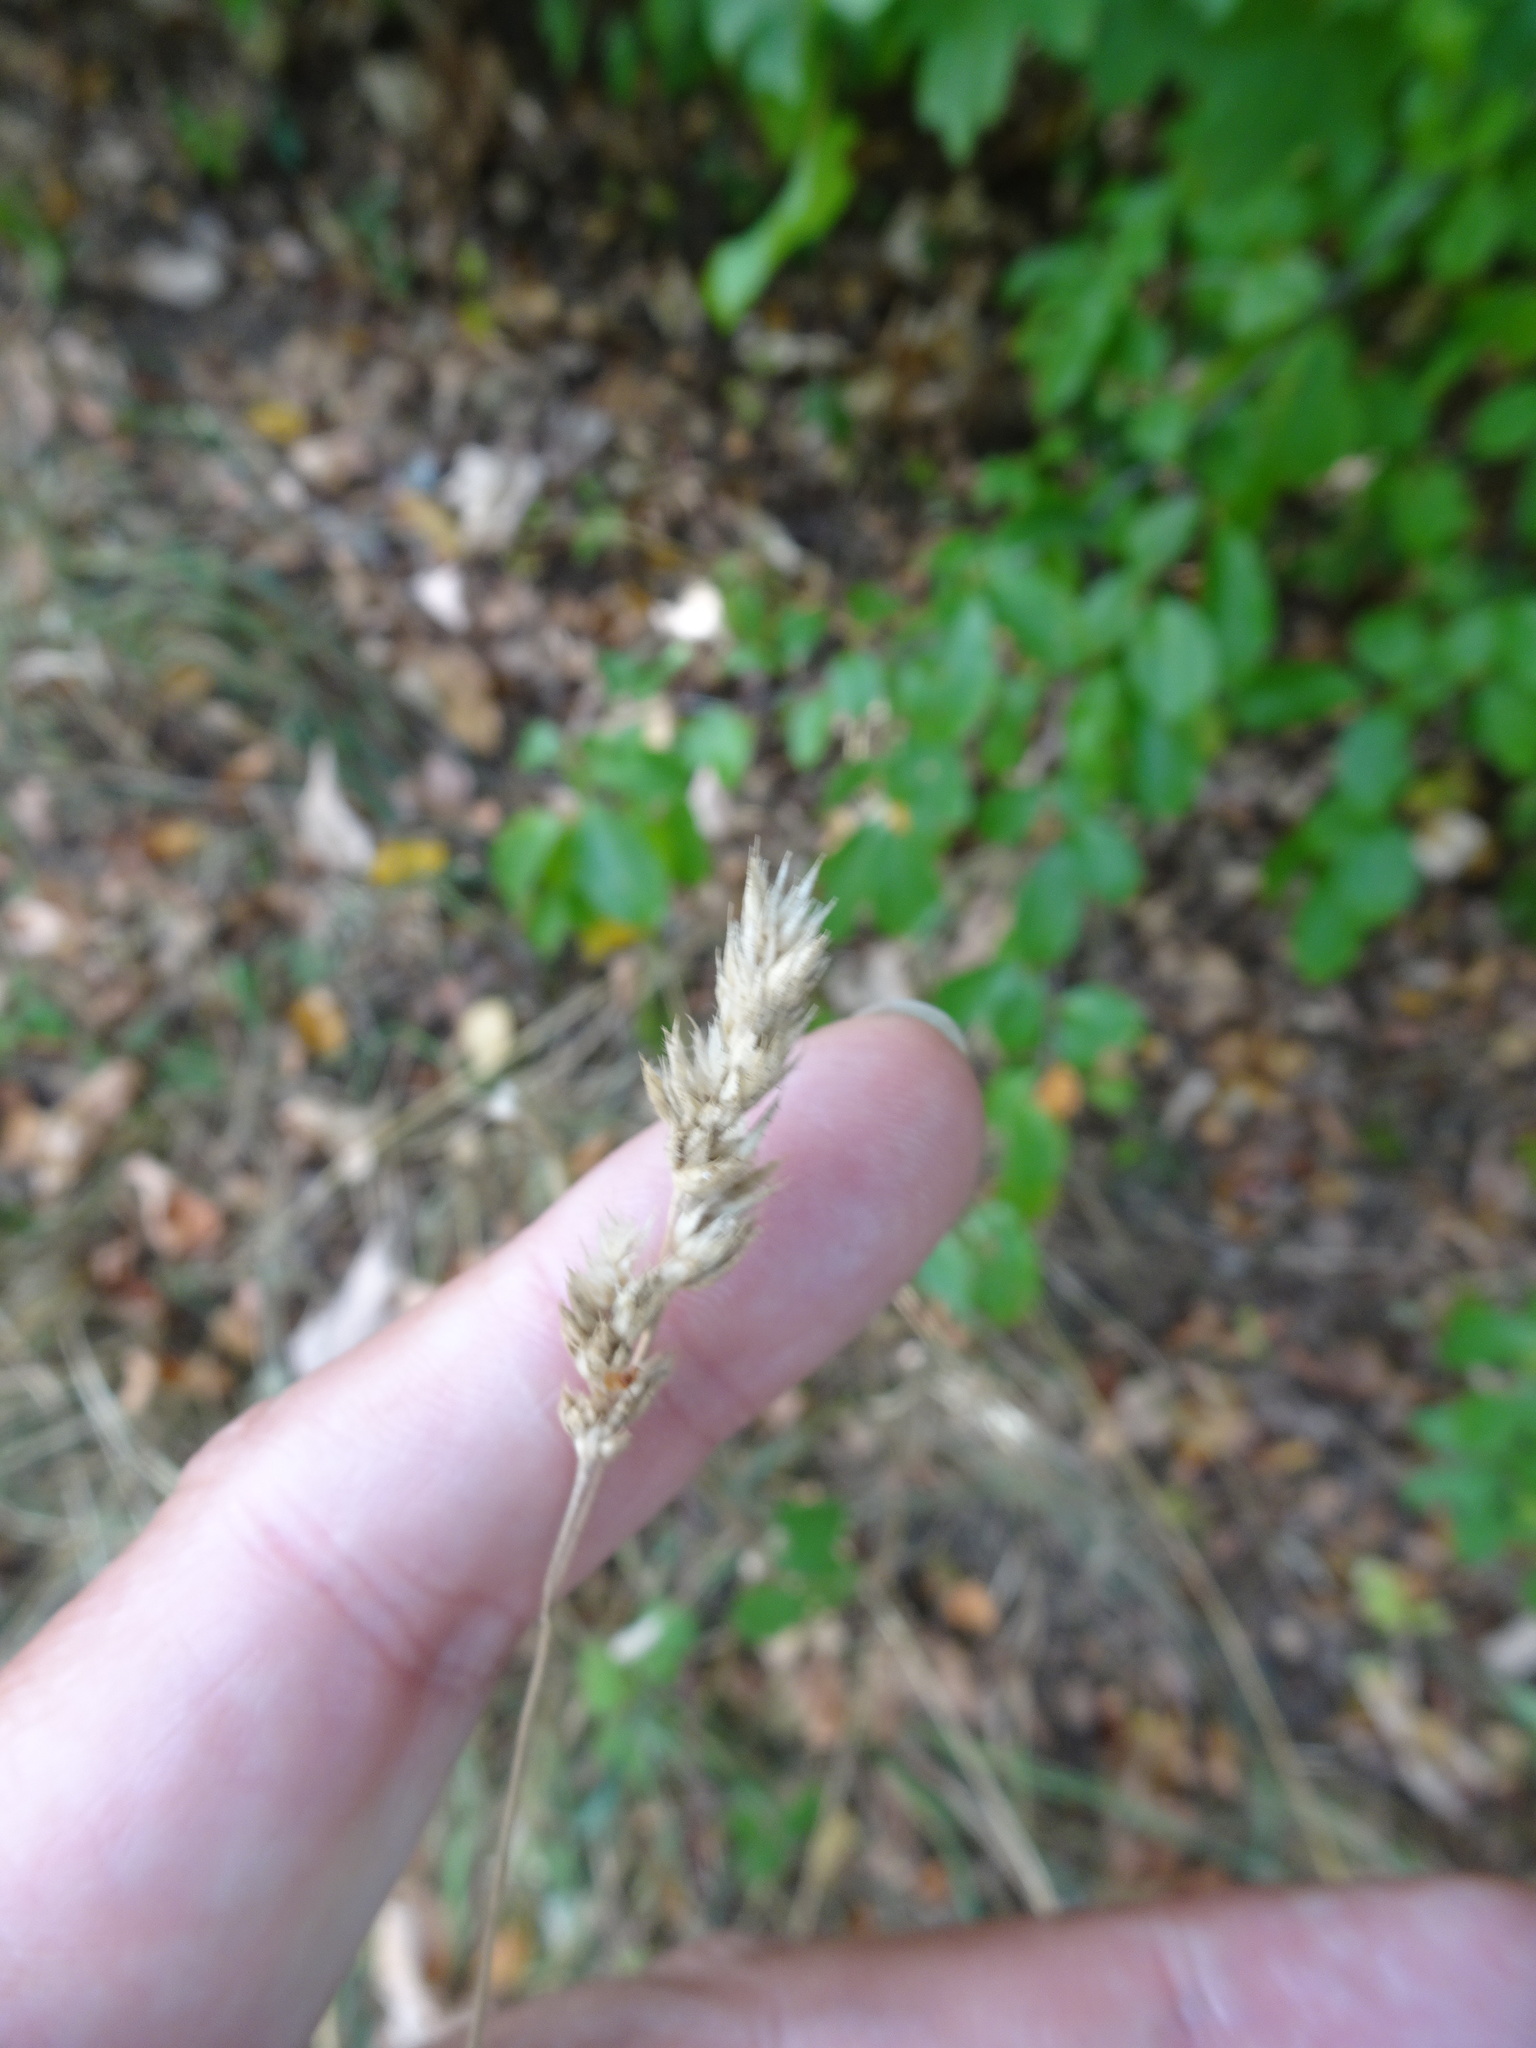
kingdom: Plantae
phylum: Tracheophyta
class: Liliopsida
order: Poales
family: Poaceae
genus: Dactylis
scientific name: Dactylis glomerata
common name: Orchardgrass
